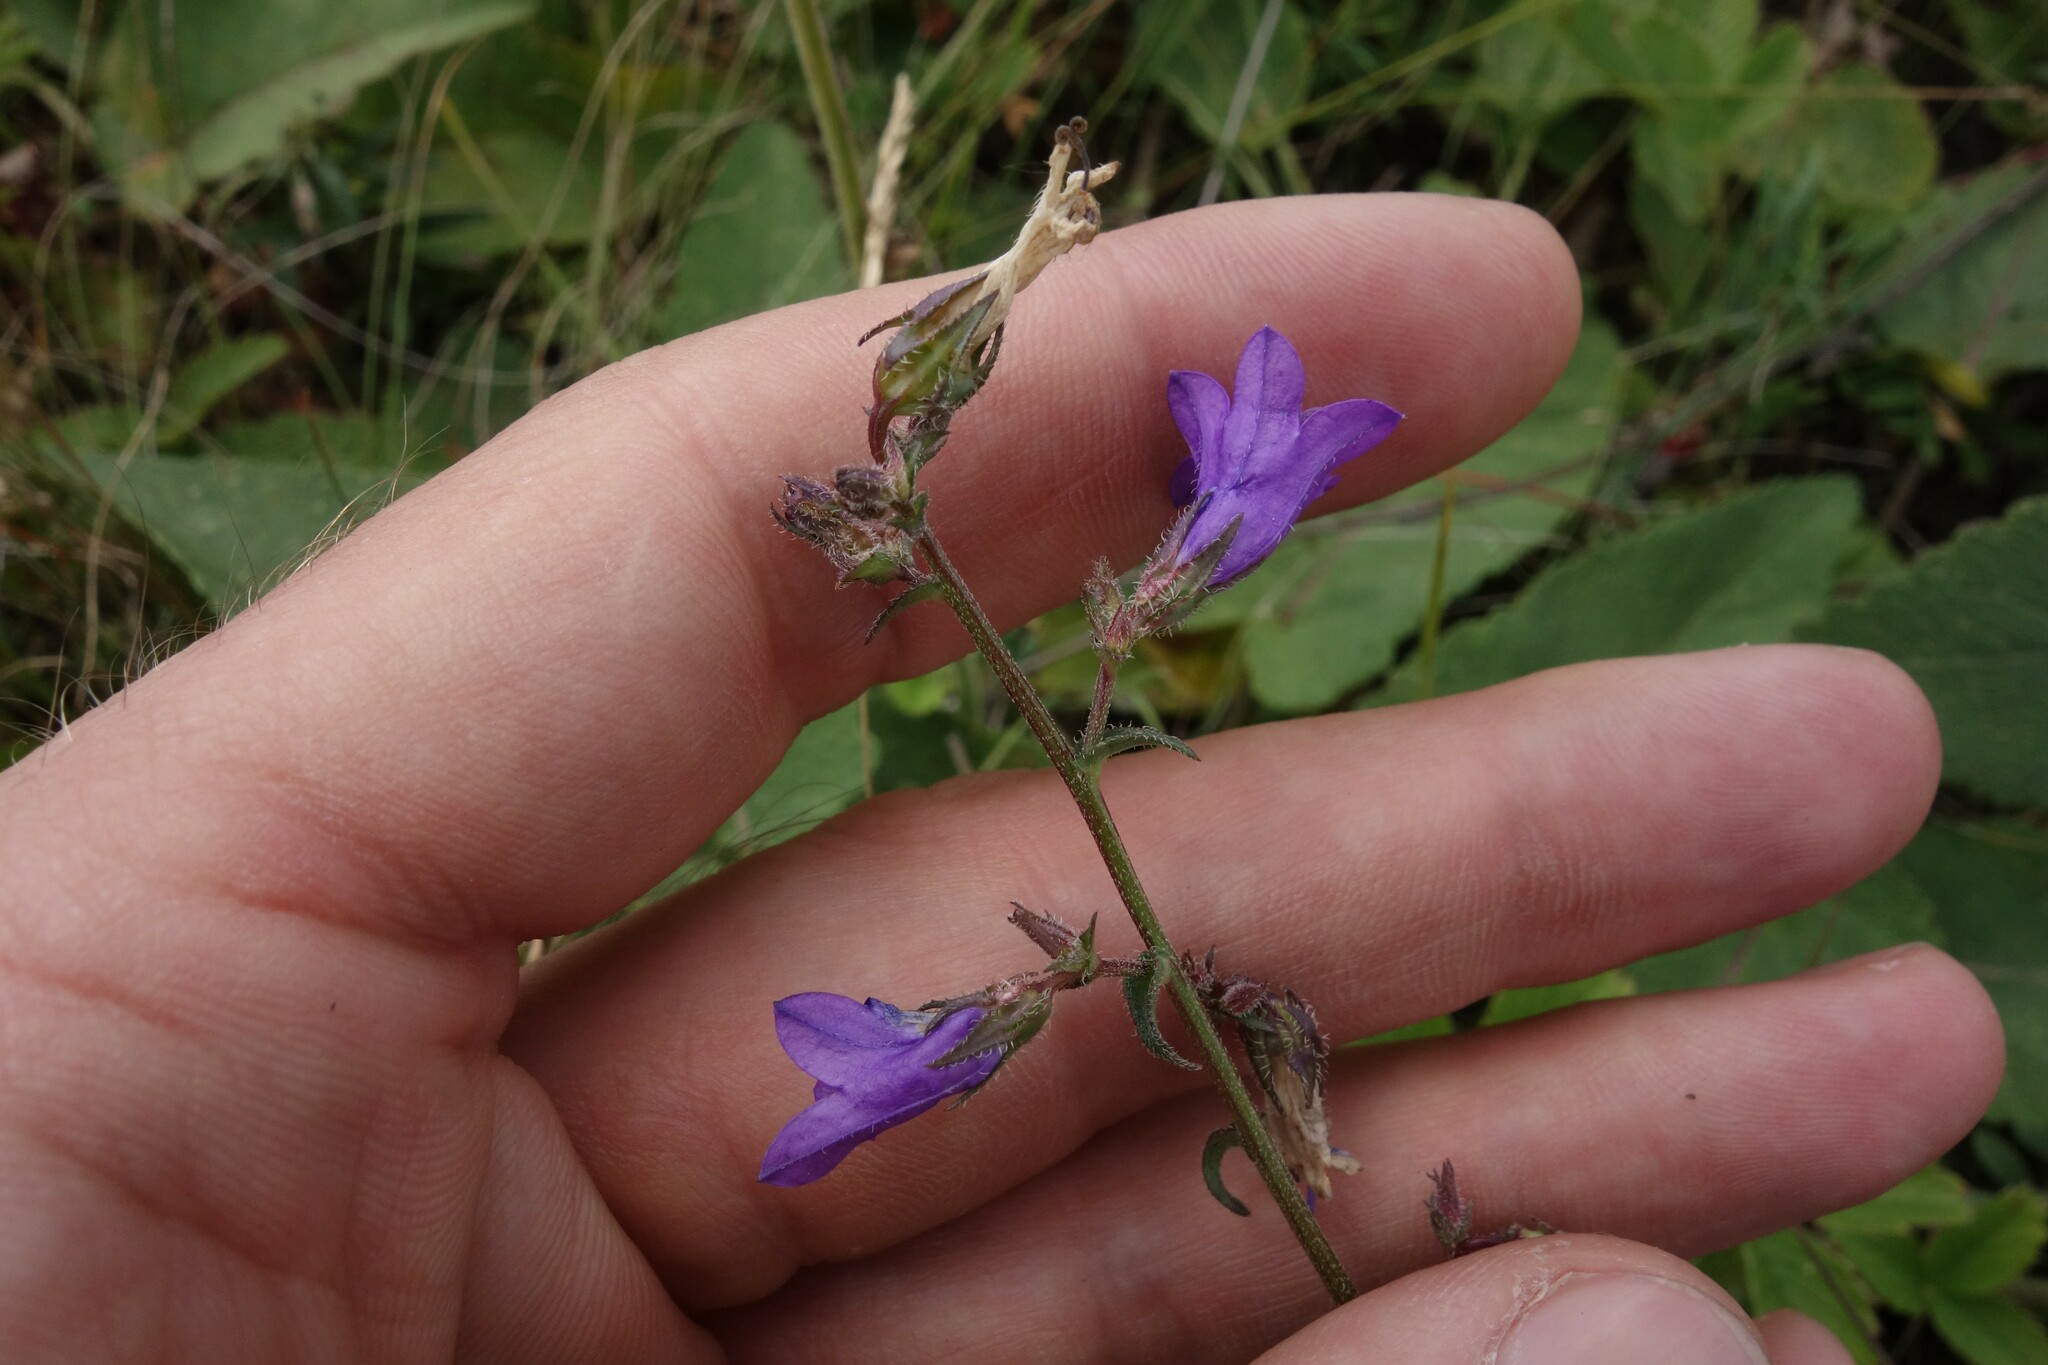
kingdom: Plantae
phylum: Tracheophyta
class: Magnoliopsida
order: Asterales
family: Campanulaceae
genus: Campanula
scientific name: Campanula sibirica
